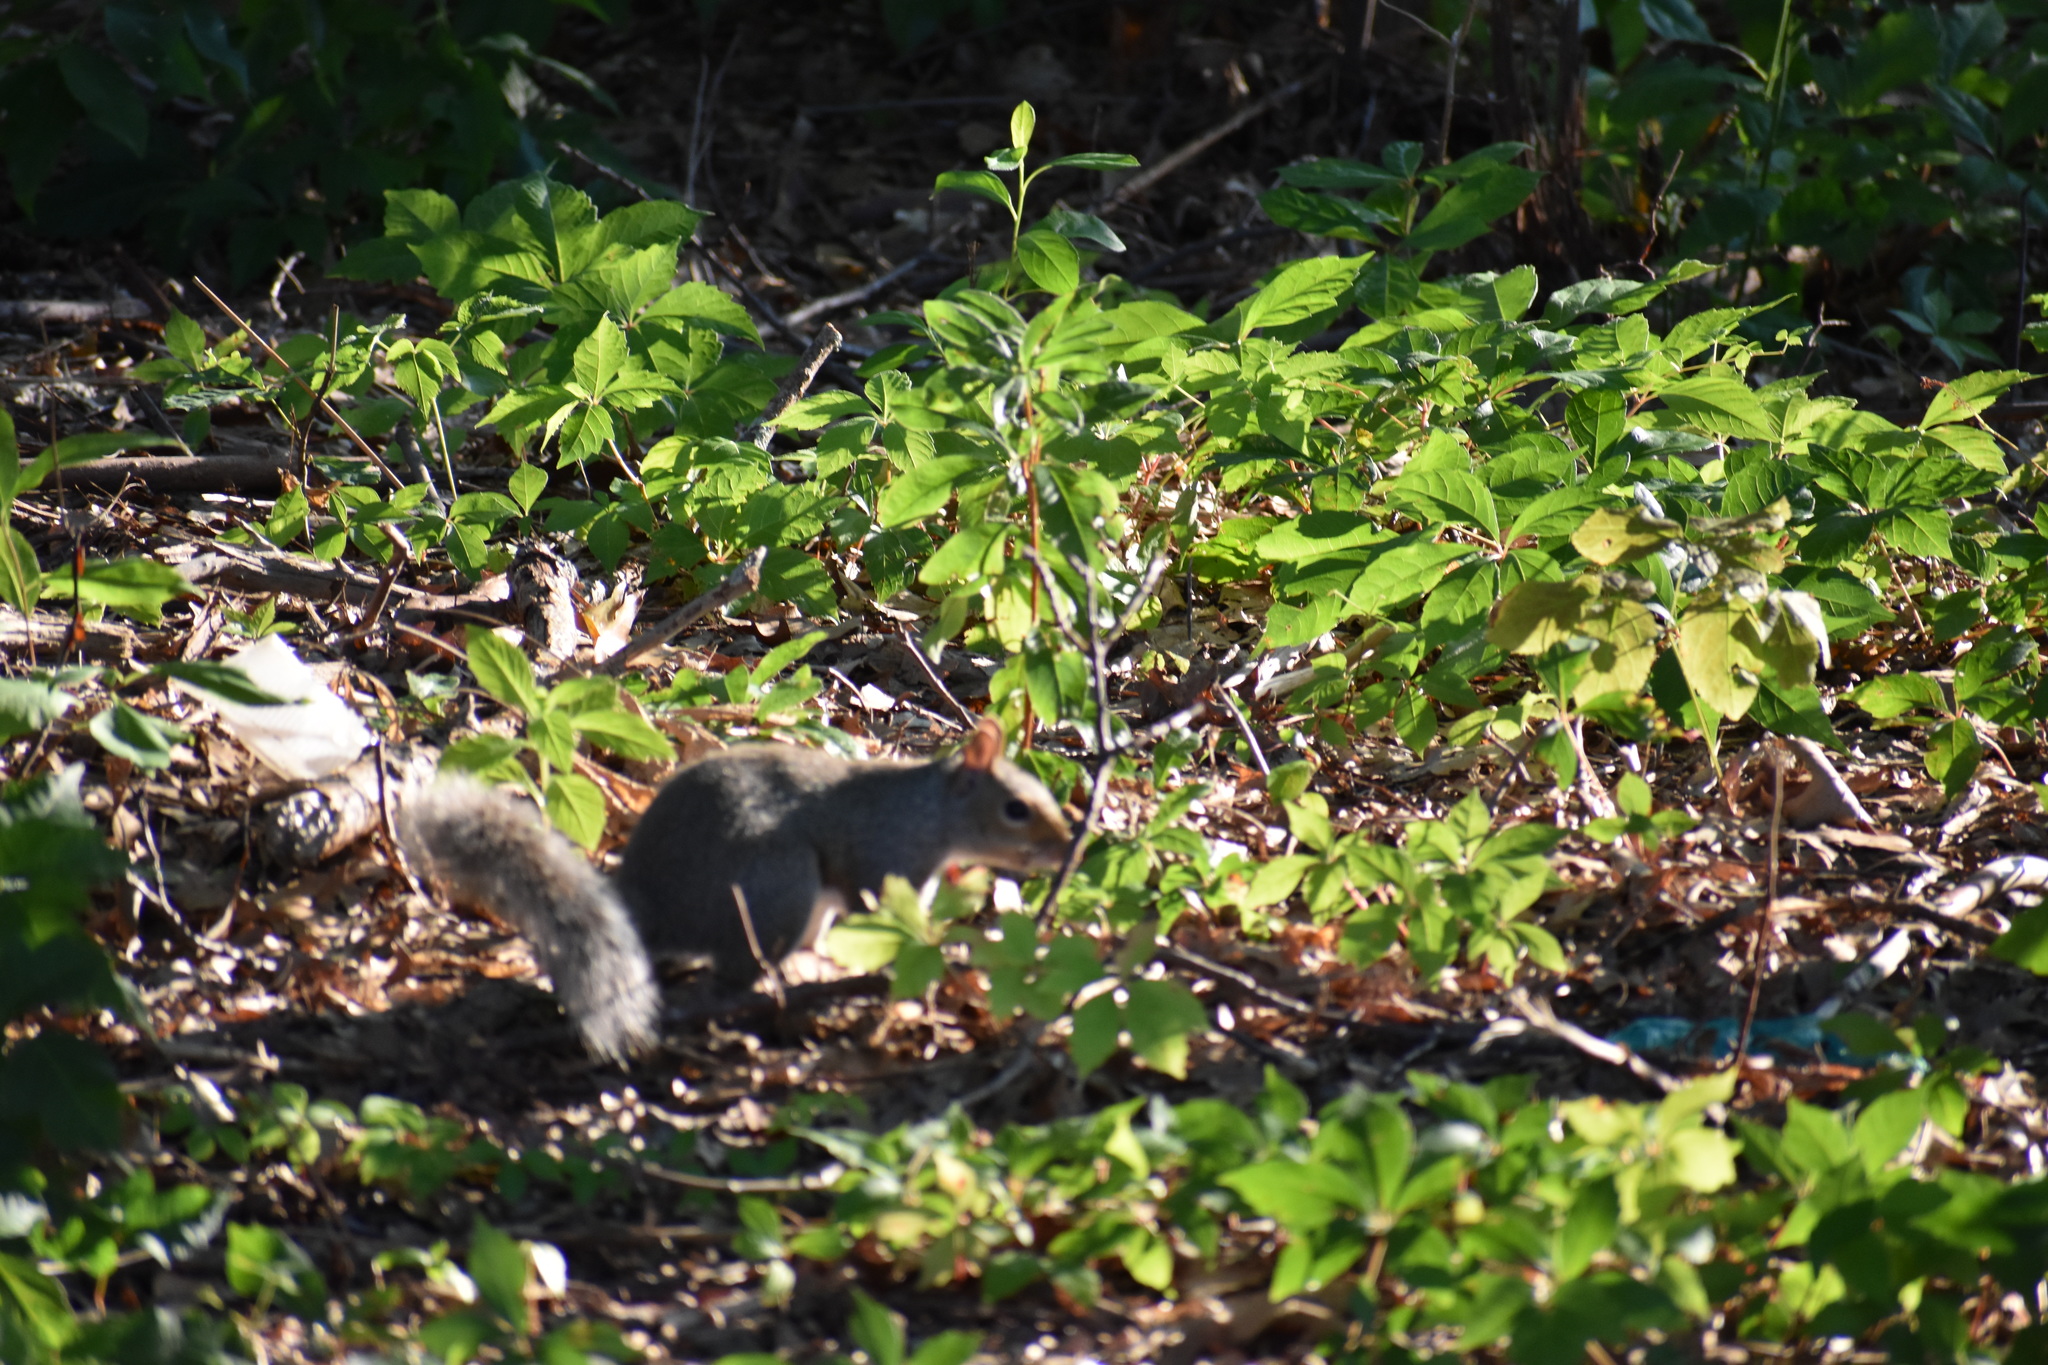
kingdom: Animalia
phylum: Chordata
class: Mammalia
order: Rodentia
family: Sciuridae
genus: Sciurus
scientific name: Sciurus carolinensis
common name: Eastern gray squirrel
